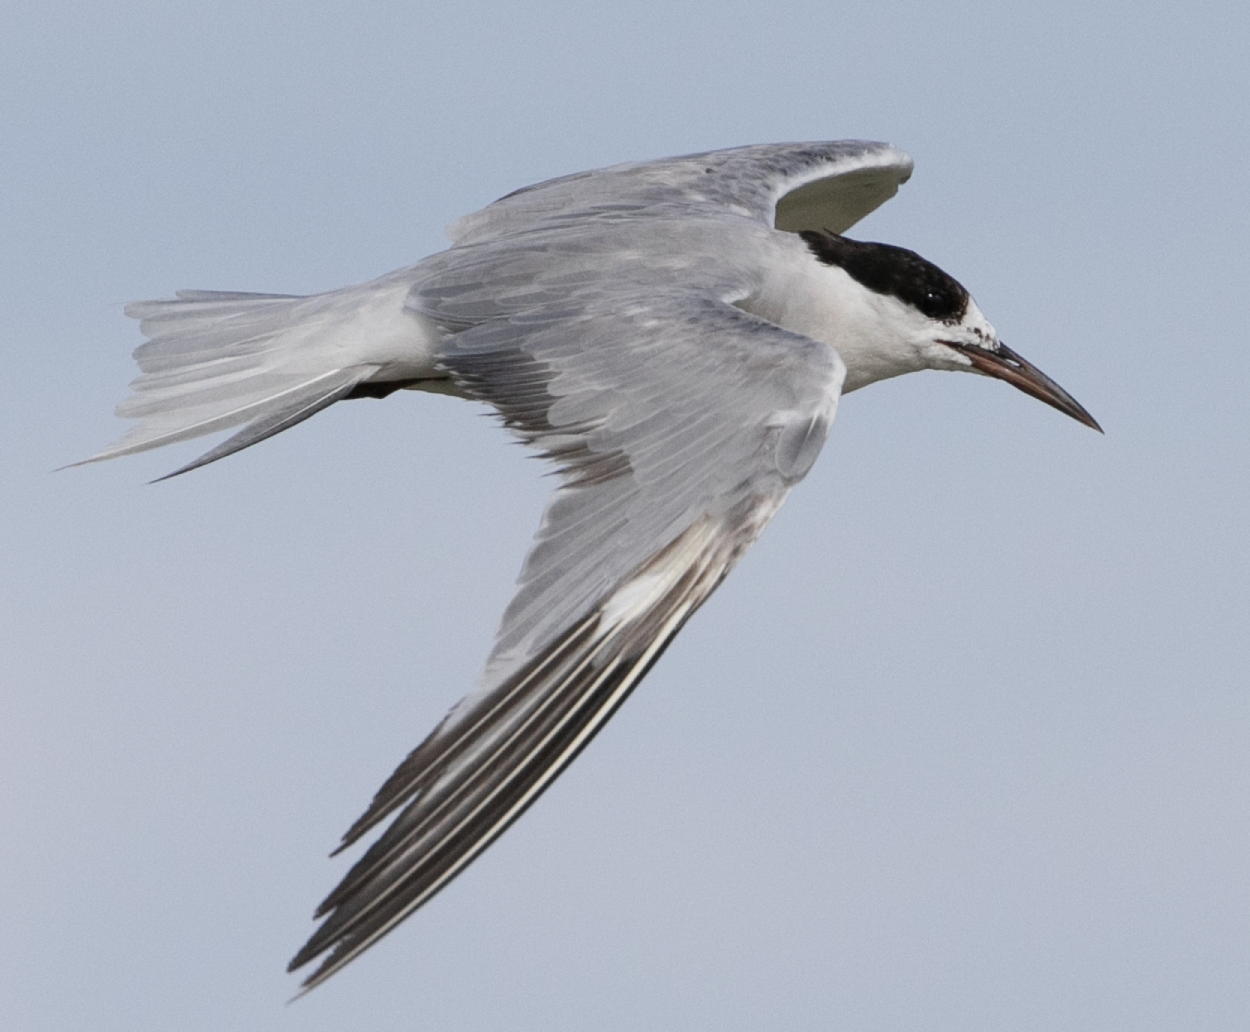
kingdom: Animalia
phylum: Chordata
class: Aves
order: Charadriiformes
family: Laridae
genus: Sterna
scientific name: Sterna hirundo
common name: Common tern
